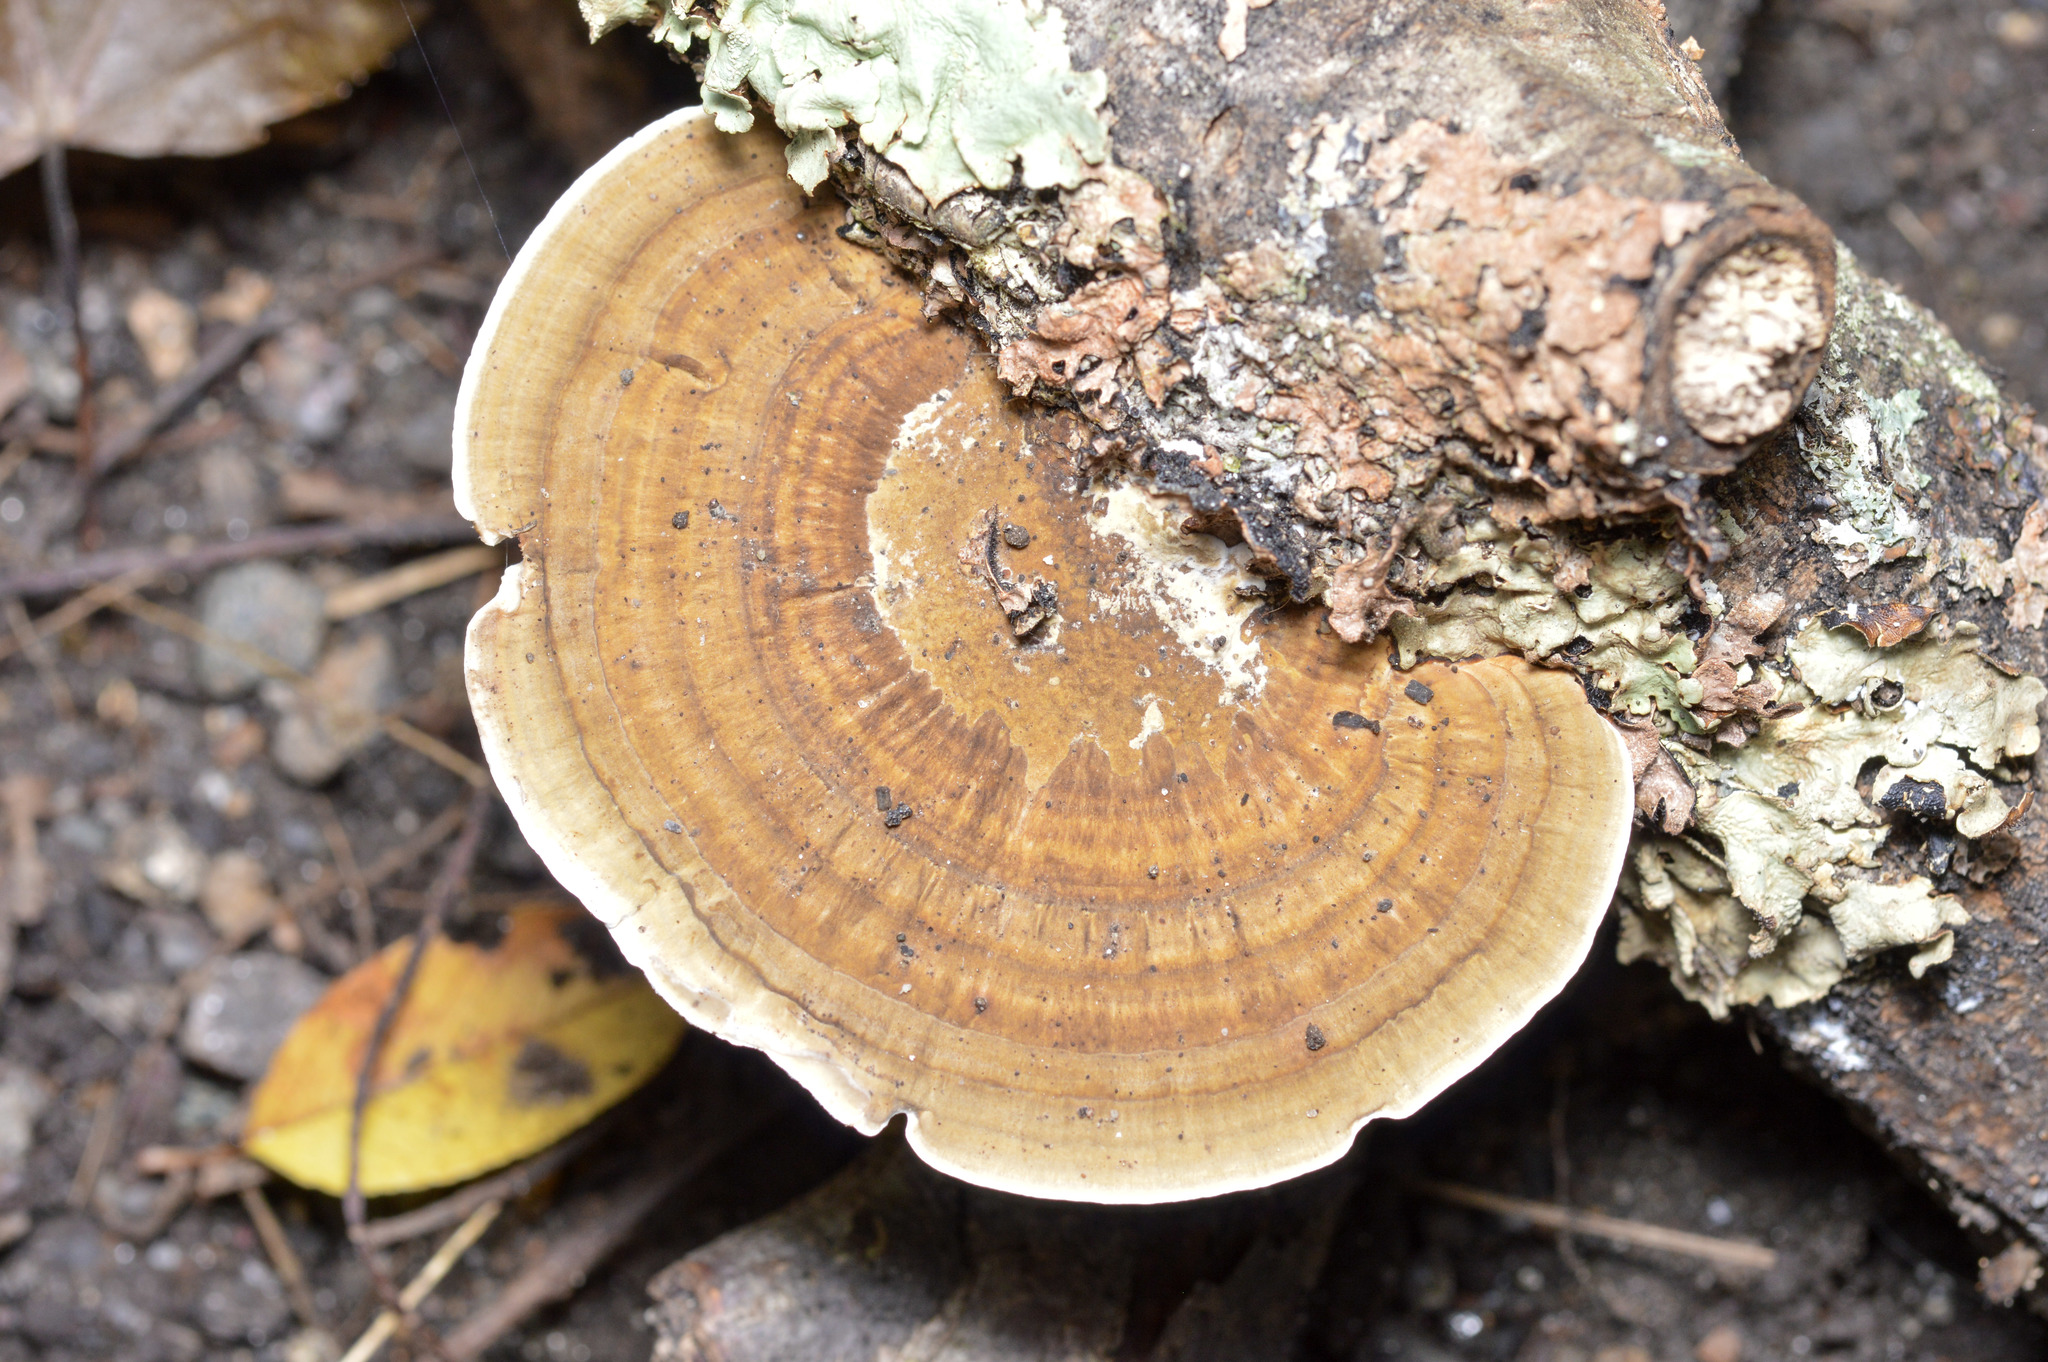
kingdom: Fungi
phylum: Basidiomycota
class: Agaricomycetes
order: Polyporales
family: Polyporaceae
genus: Daedaleopsis
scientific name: Daedaleopsis confragosa
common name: Blushing bracket
